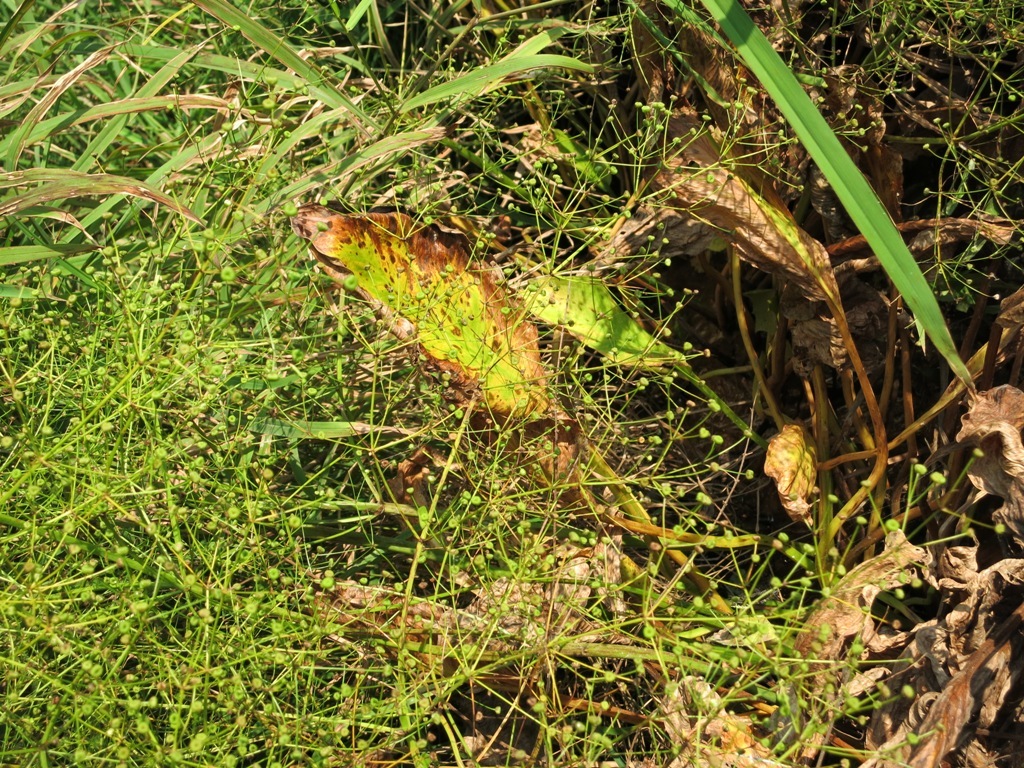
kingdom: Plantae
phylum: Tracheophyta
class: Liliopsida
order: Alismatales
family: Alismataceae
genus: Alisma
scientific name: Alisma subcordatum
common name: Southern water-plantain
